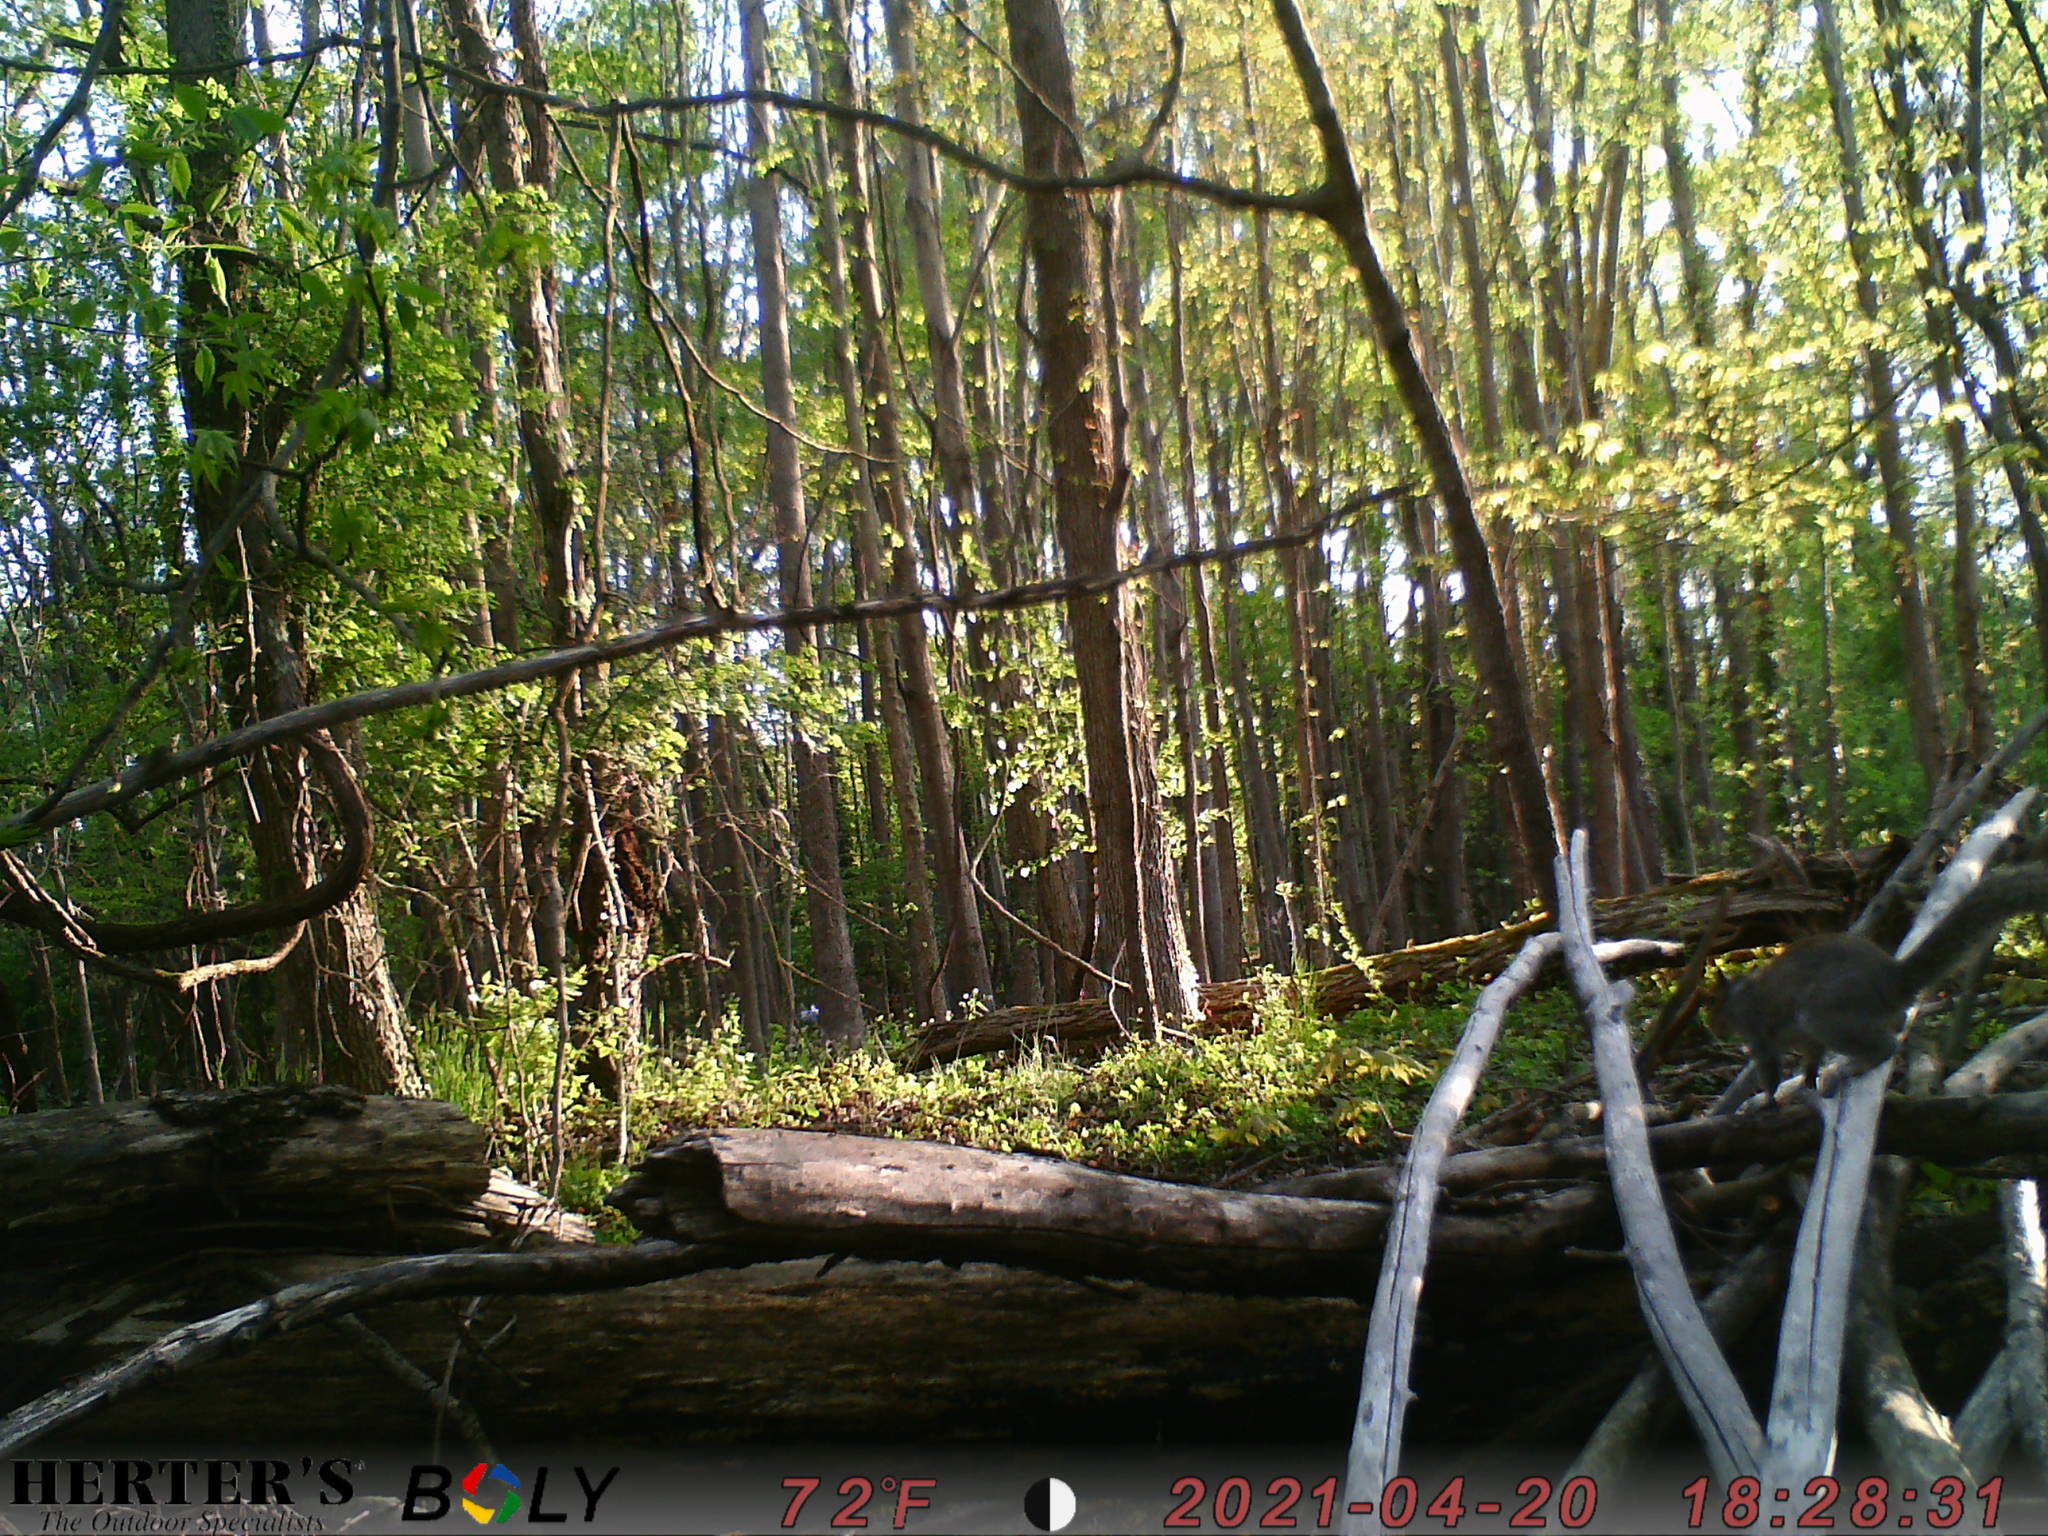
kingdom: Animalia
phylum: Chordata
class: Mammalia
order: Rodentia
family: Sciuridae
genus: Sciurus
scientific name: Sciurus carolinensis
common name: Eastern gray squirrel
